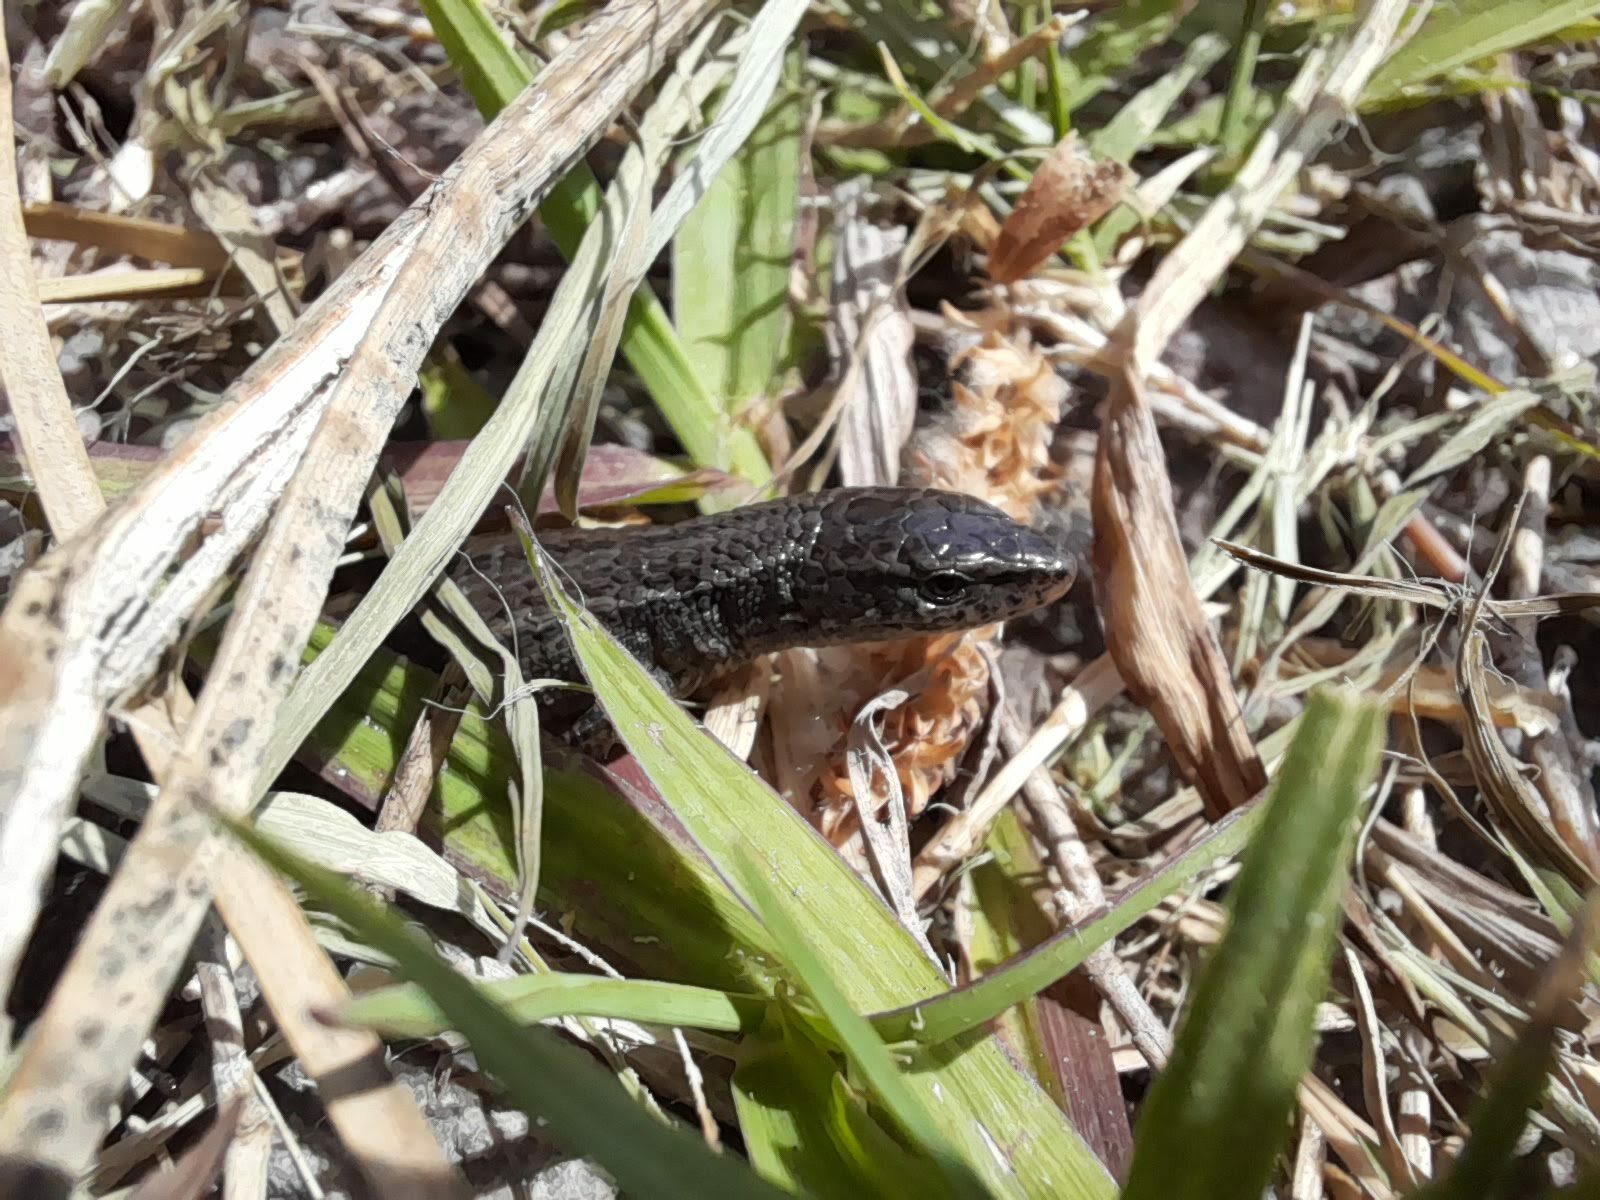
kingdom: Animalia
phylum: Chordata
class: Squamata
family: Gymnophthalmidae
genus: Cercosaura
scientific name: Cercosaura schreibersii
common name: Schreibers' many-fingered teiid
